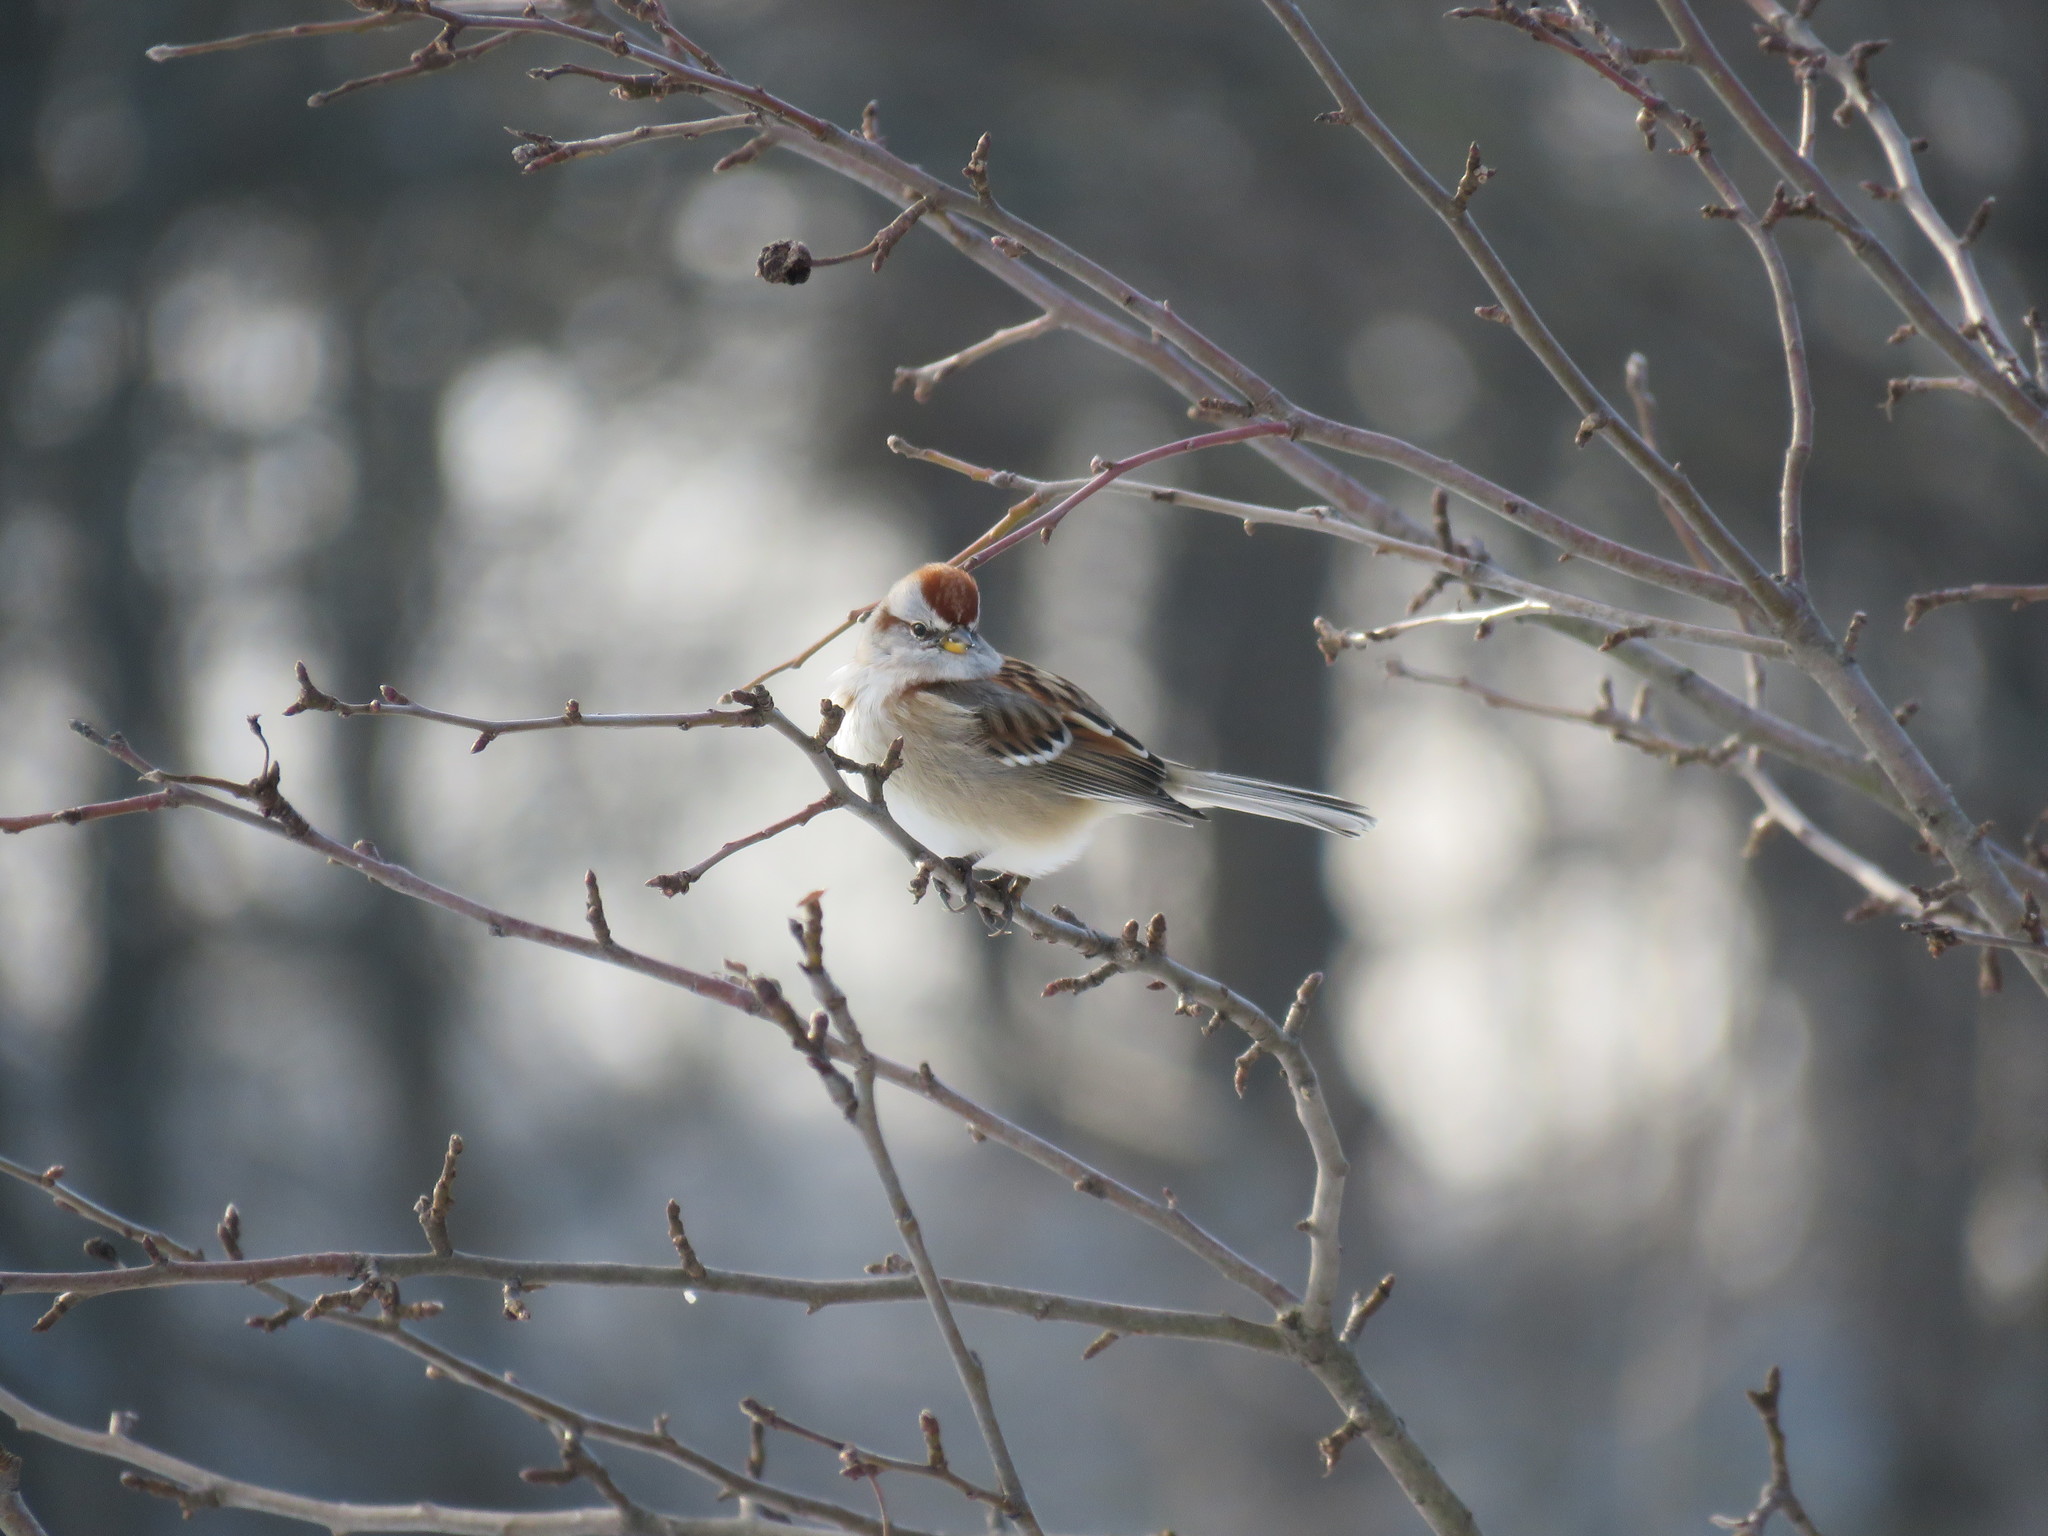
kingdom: Animalia
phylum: Chordata
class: Aves
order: Passeriformes
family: Passerellidae
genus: Spizelloides
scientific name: Spizelloides arborea
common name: American tree sparrow
